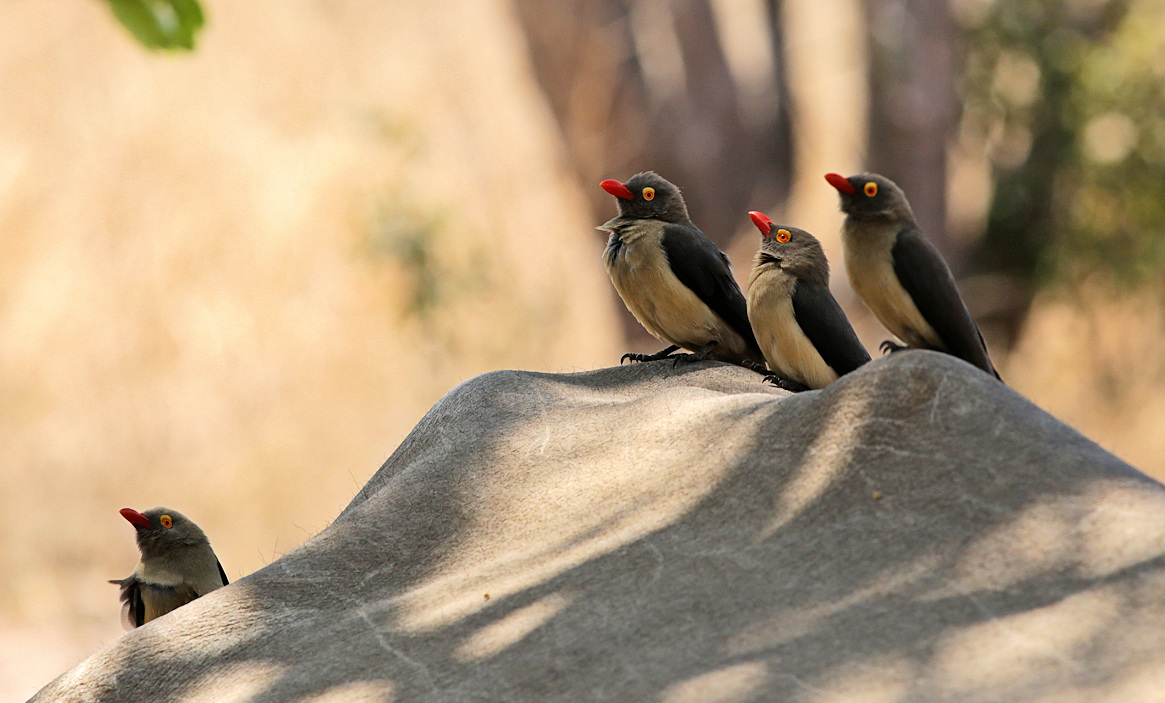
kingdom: Animalia
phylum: Chordata
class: Aves
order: Passeriformes
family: Buphagidae
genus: Buphagus
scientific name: Buphagus erythrorhynchus
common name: Red-billed oxpecker
